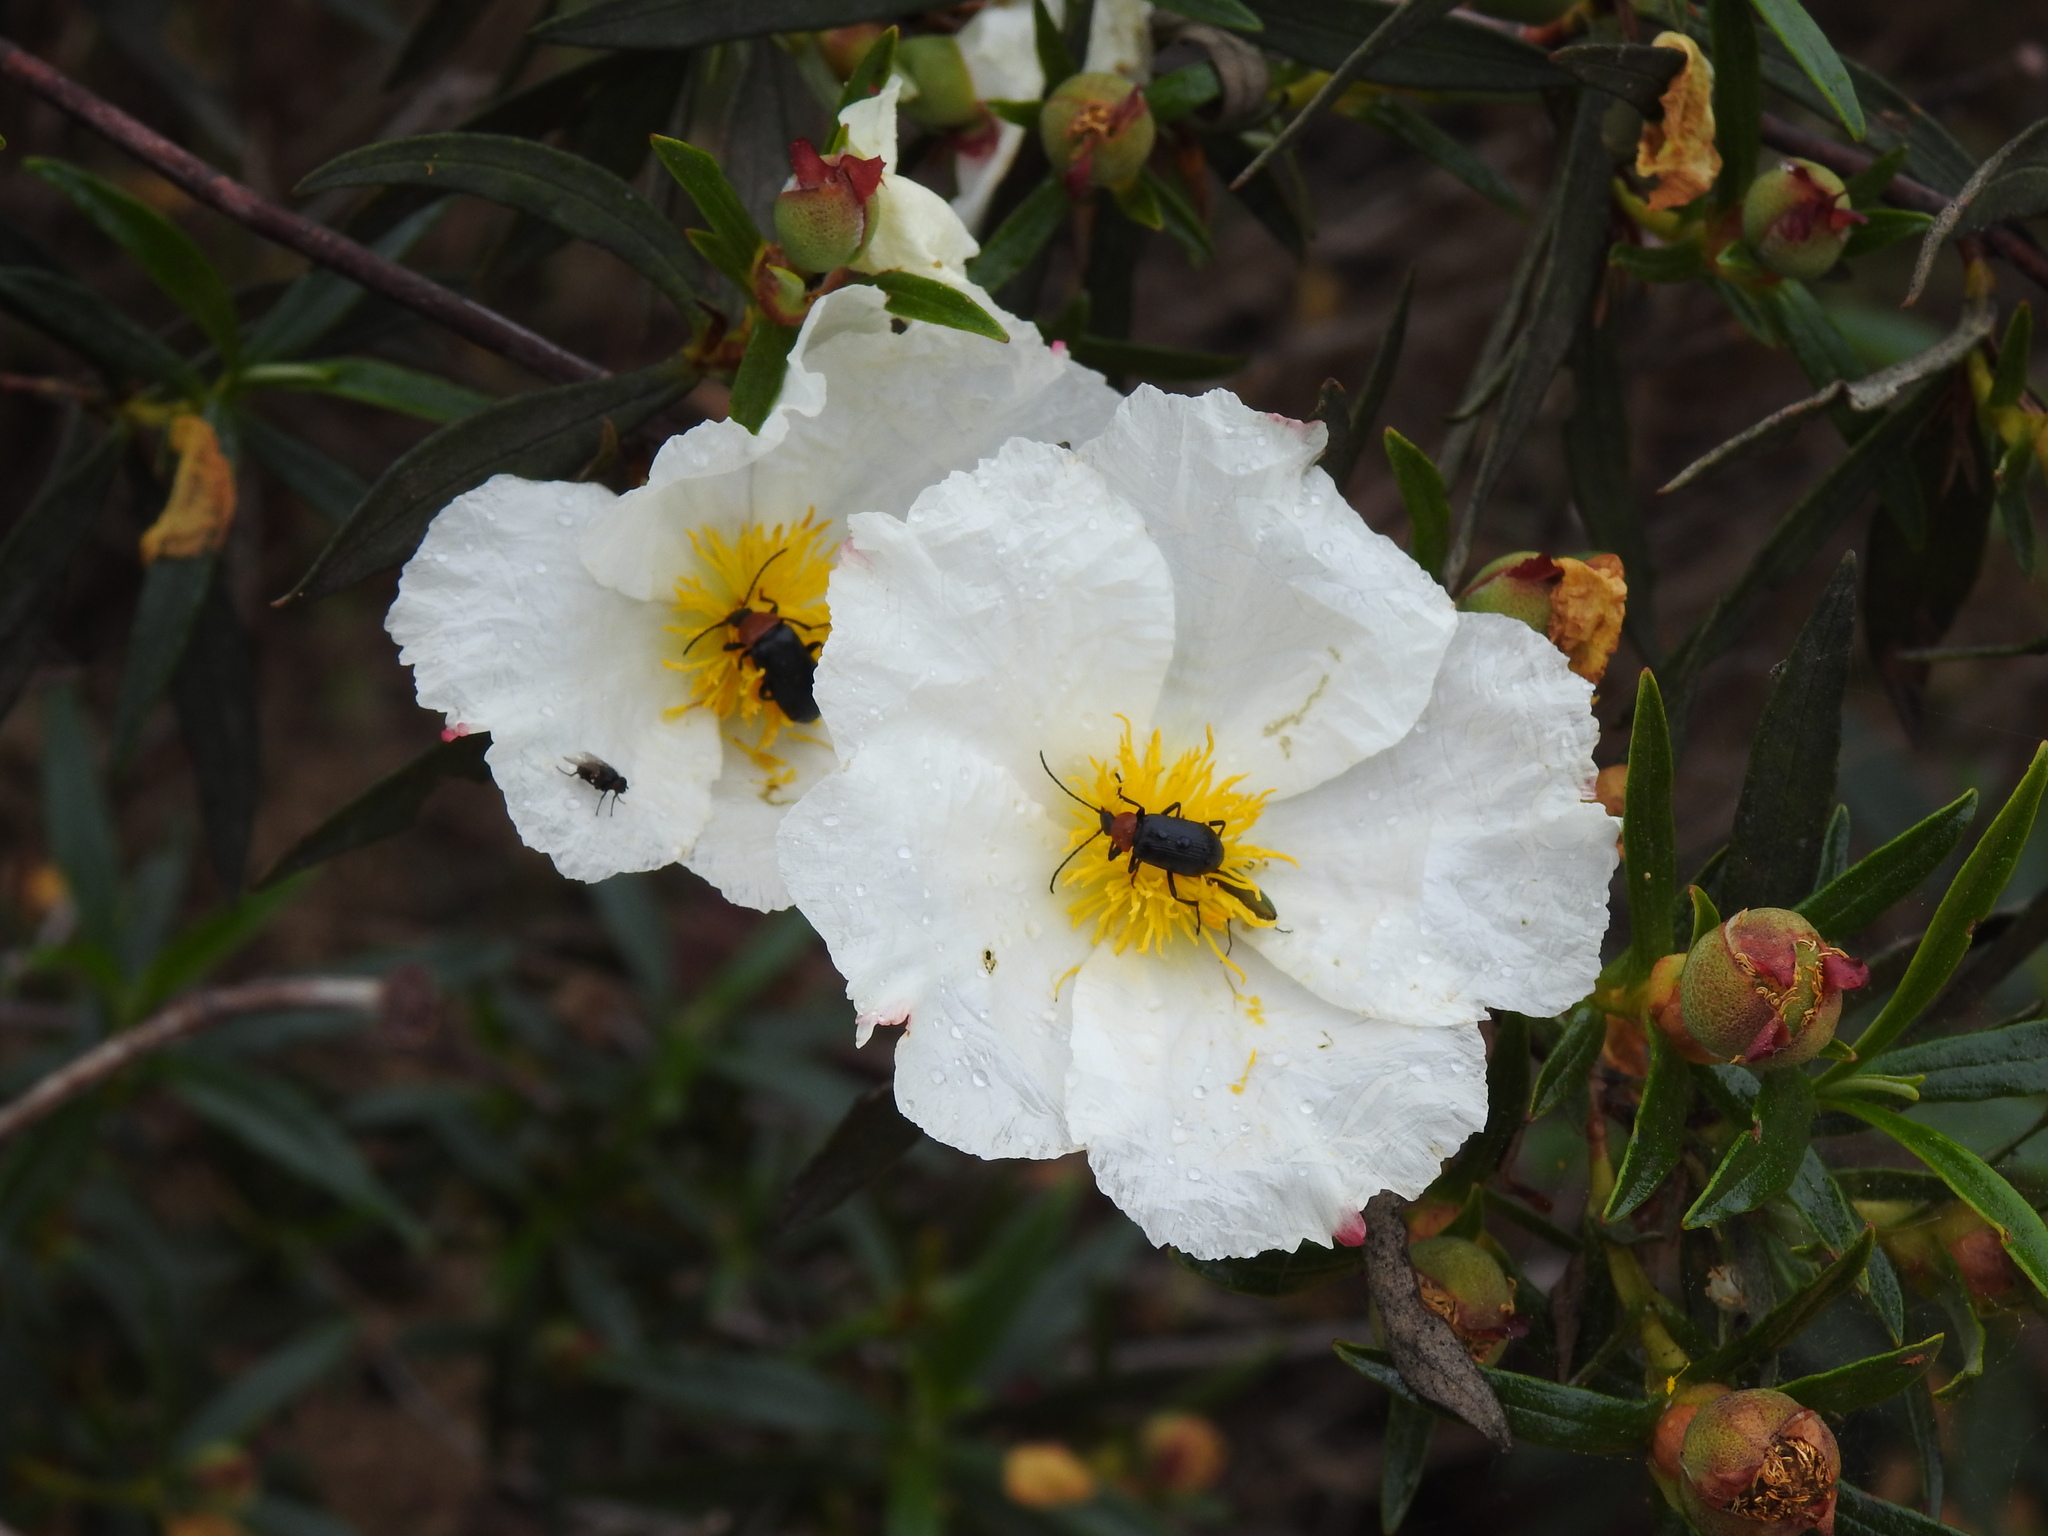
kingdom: Animalia
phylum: Arthropoda
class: Insecta
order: Coleoptera
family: Tenebrionidae
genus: Heliotaurus
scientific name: Heliotaurus ruficollis
